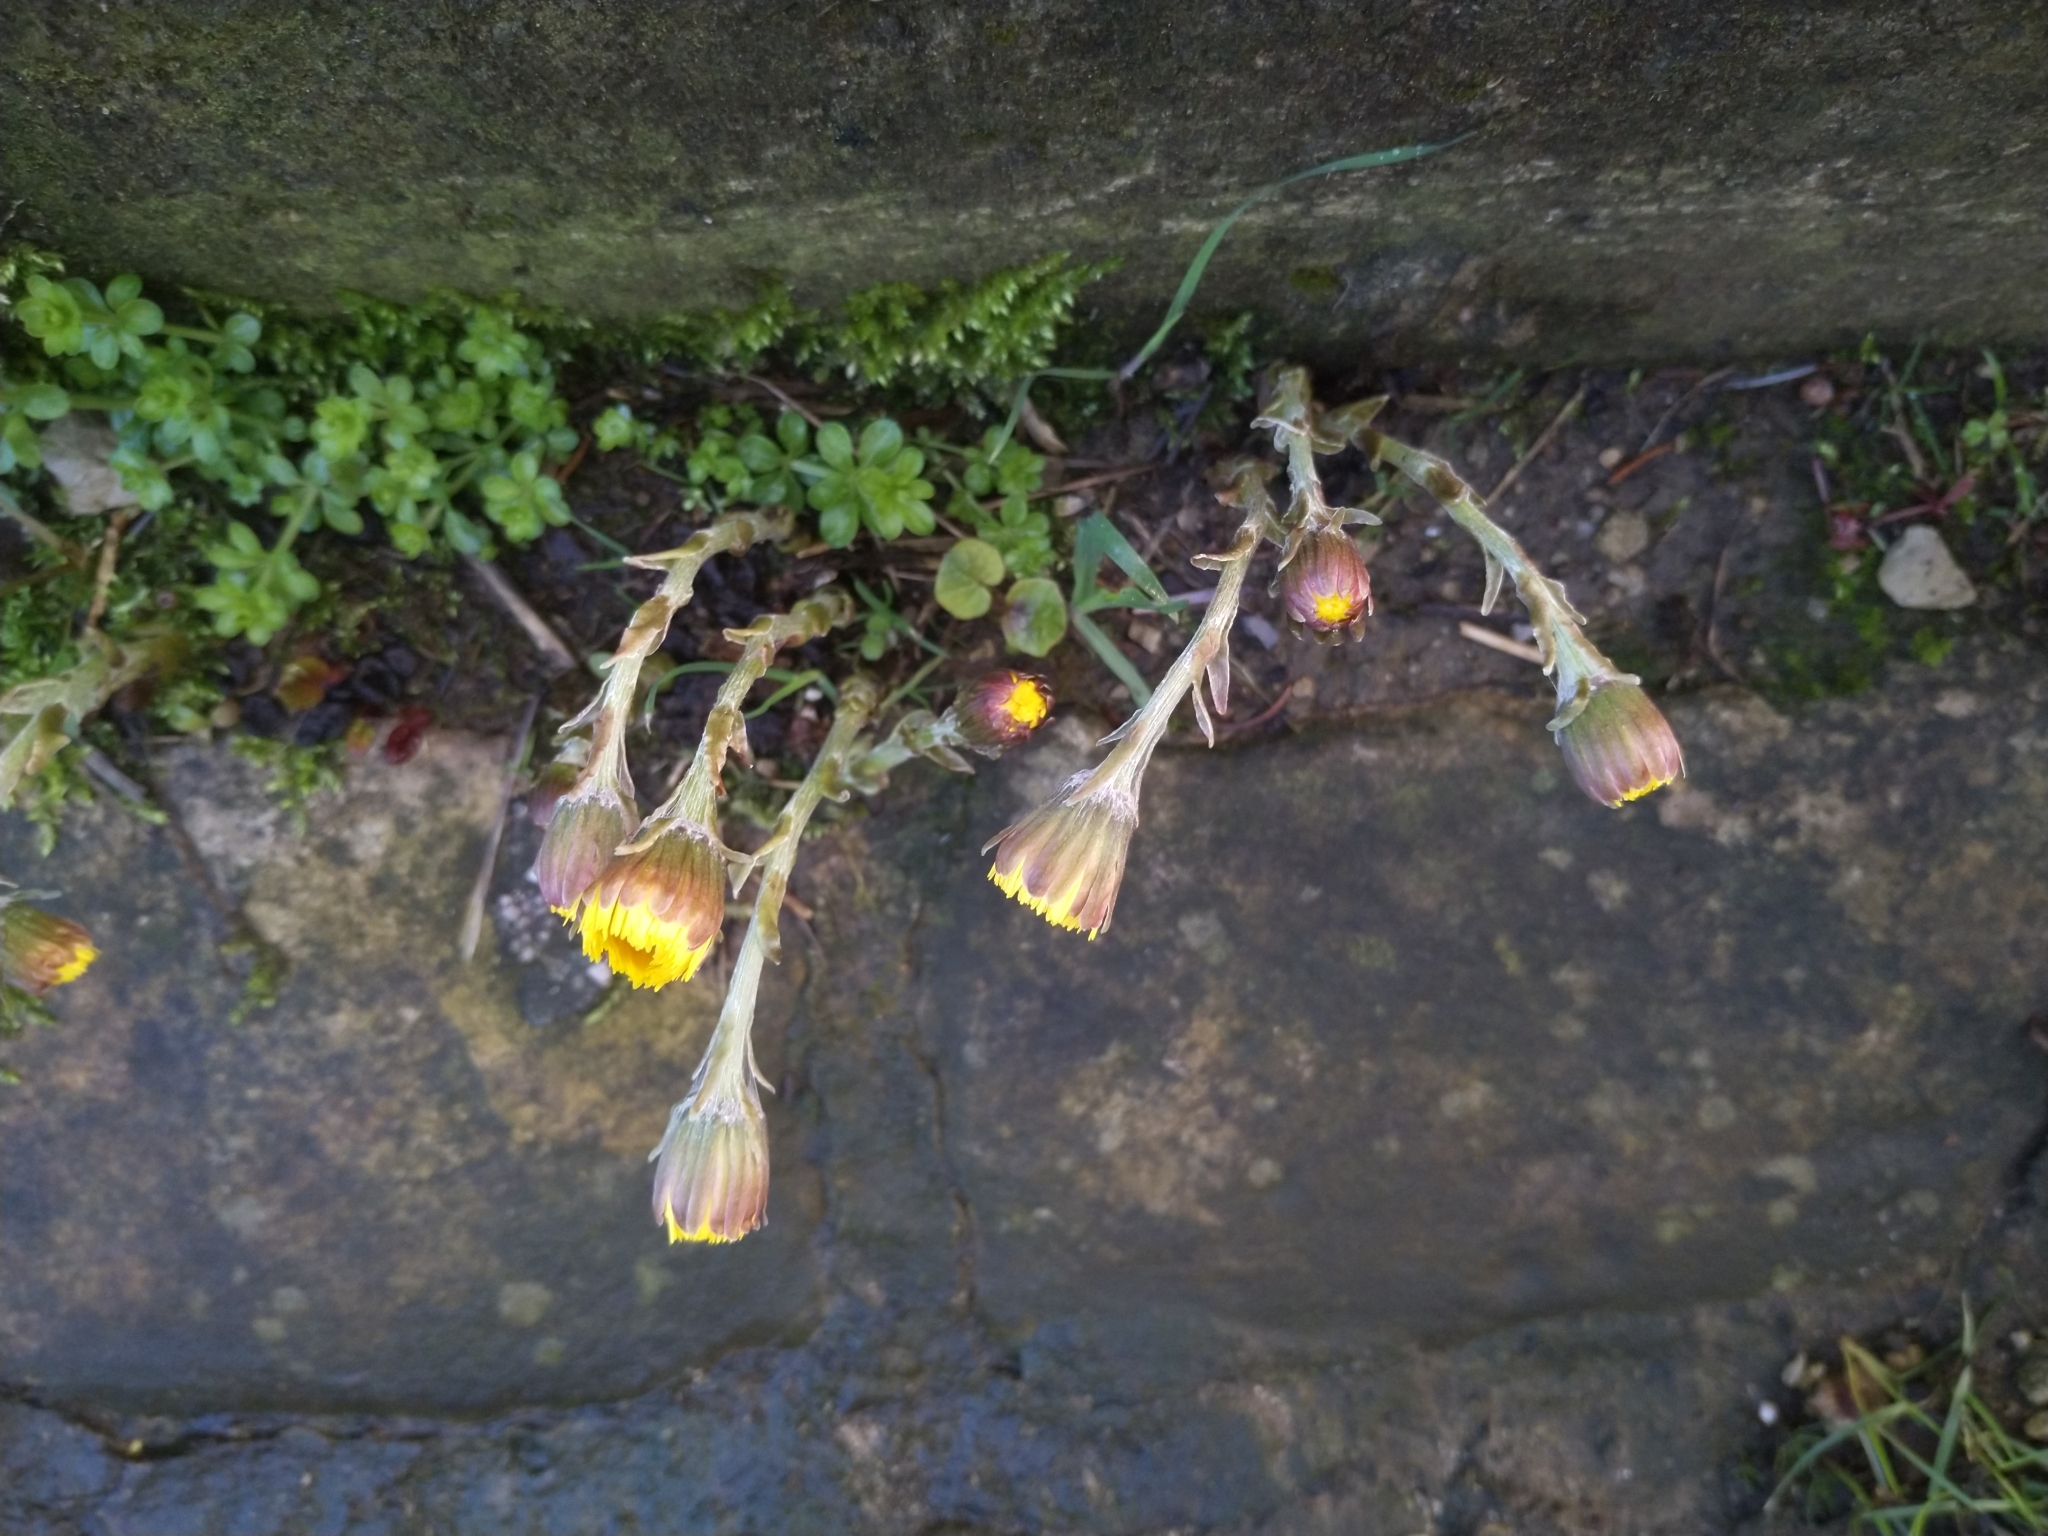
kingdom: Plantae
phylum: Tracheophyta
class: Magnoliopsida
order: Asterales
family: Asteraceae
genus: Tussilago
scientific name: Tussilago farfara
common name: Coltsfoot
